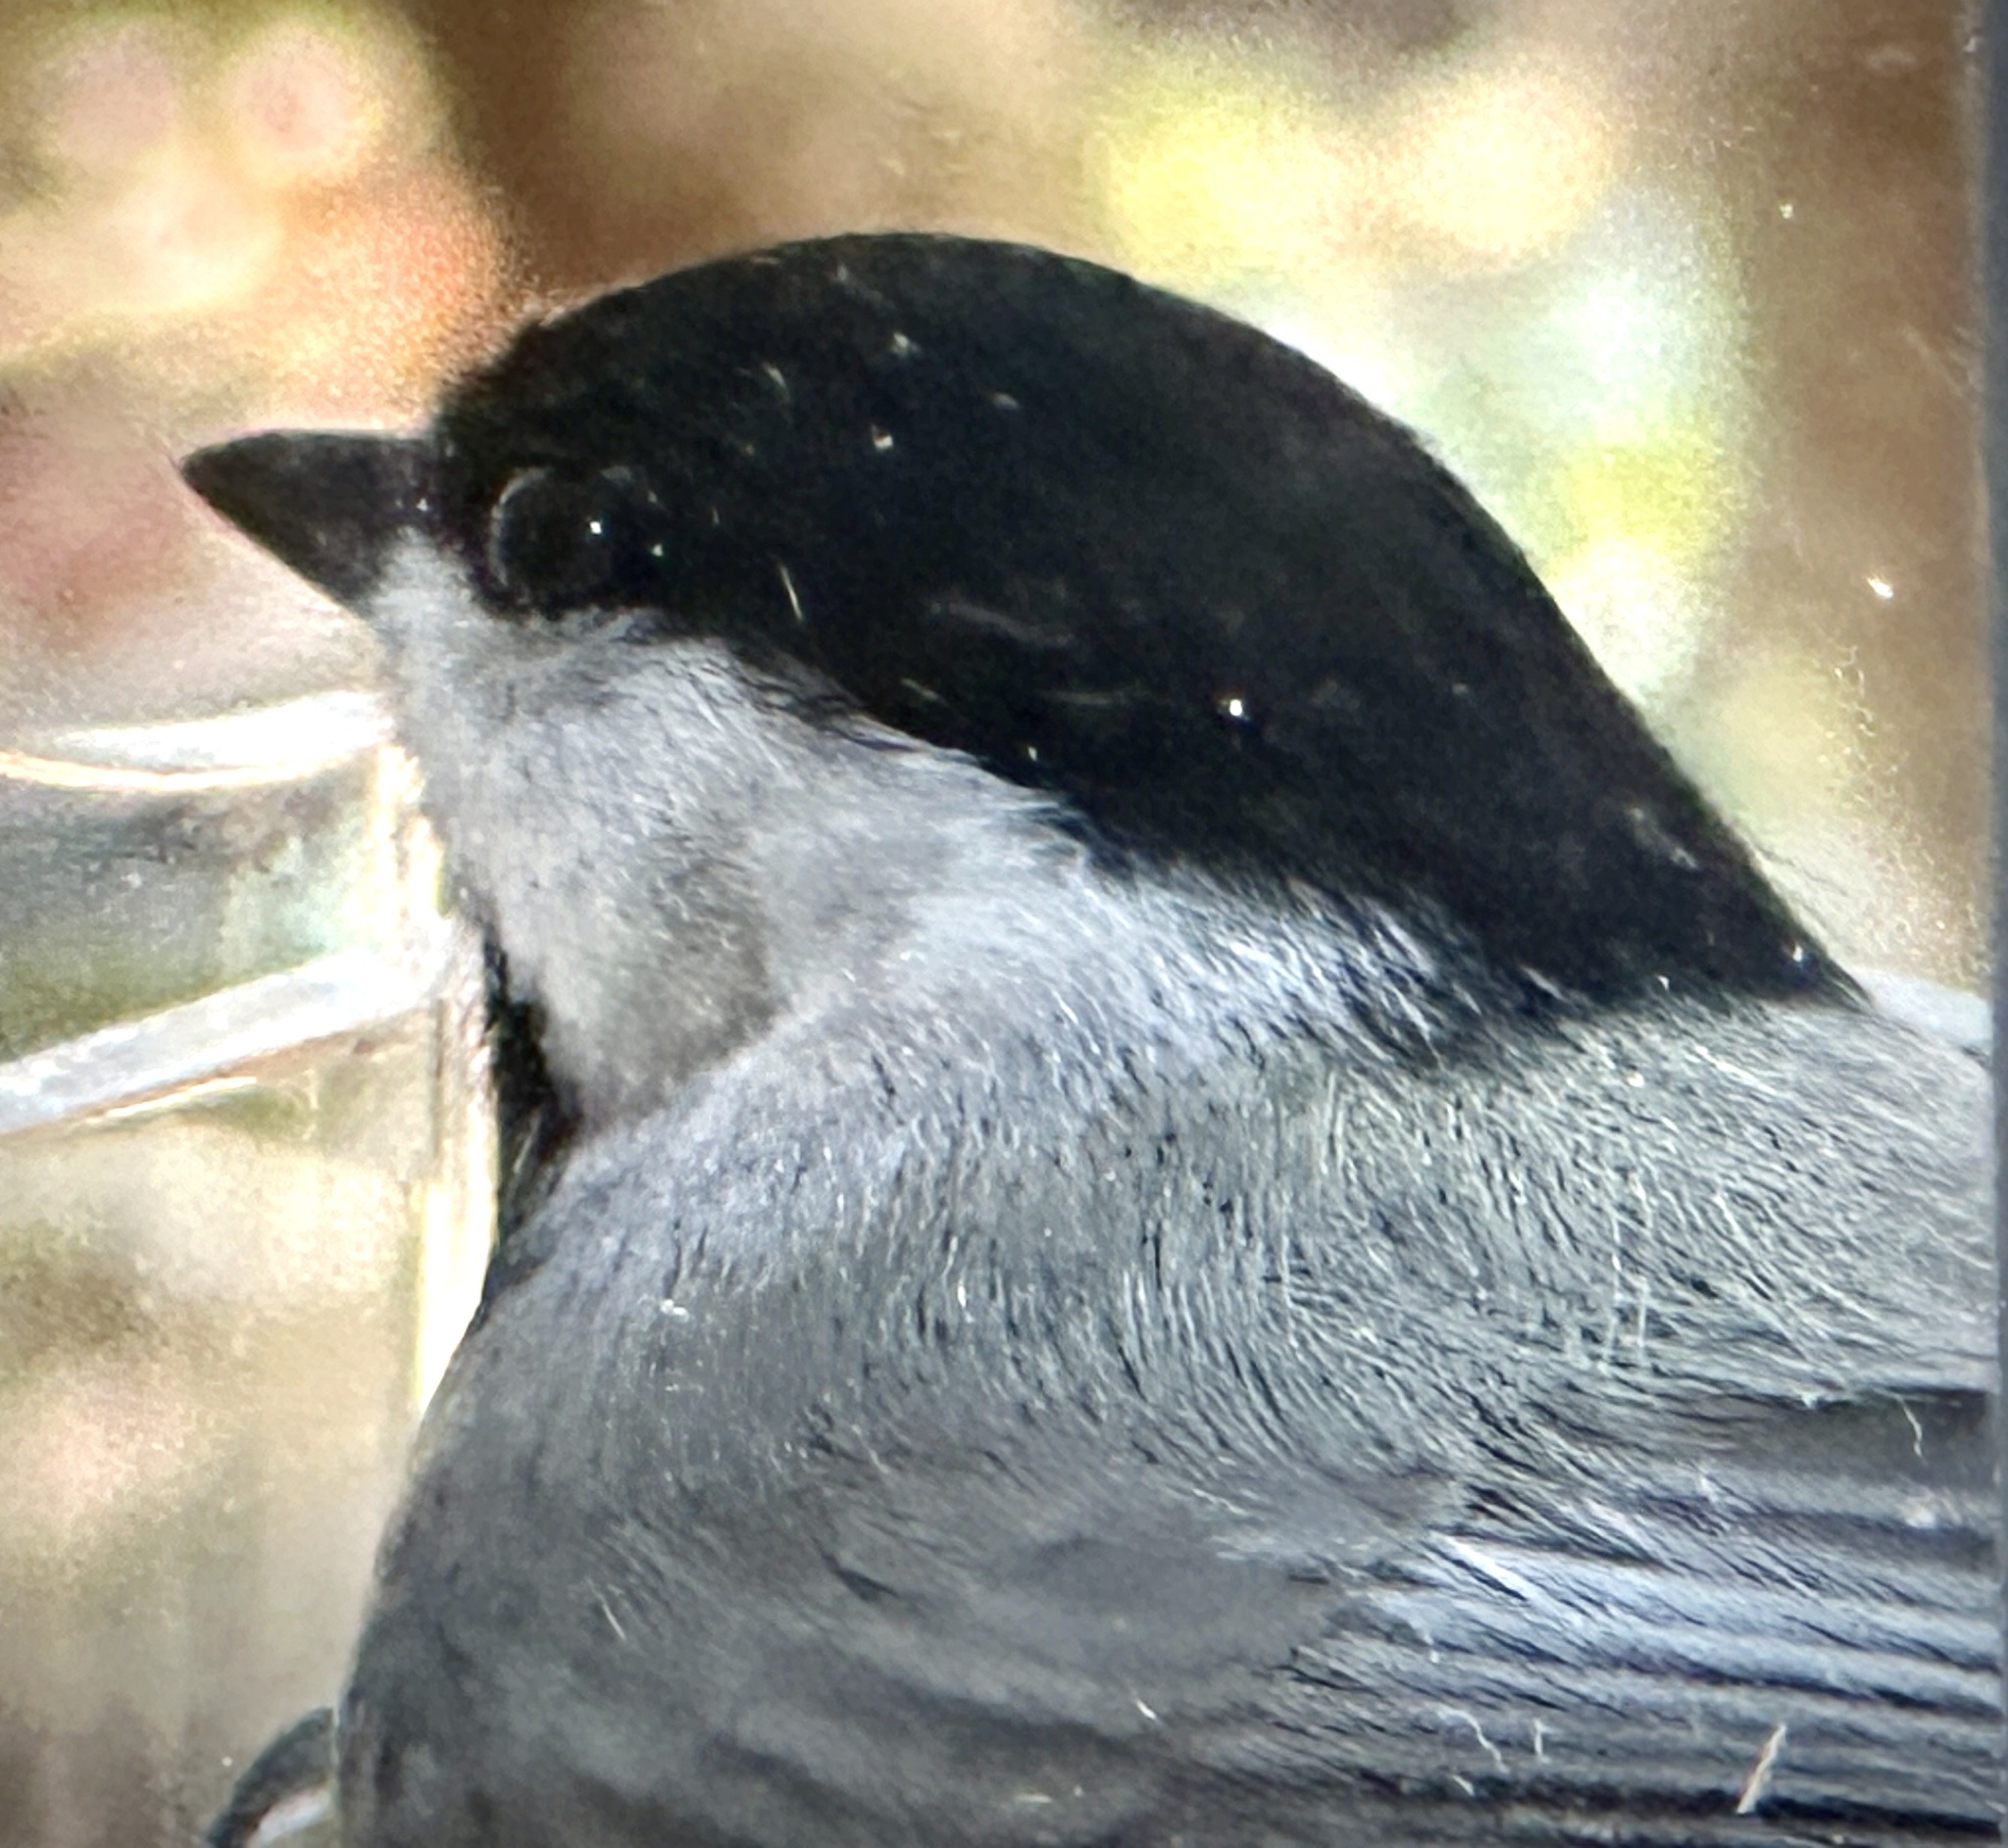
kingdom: Animalia
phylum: Chordata
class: Aves
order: Passeriformes
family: Paridae
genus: Poecile
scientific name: Poecile carolinensis
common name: Carolina chickadee
